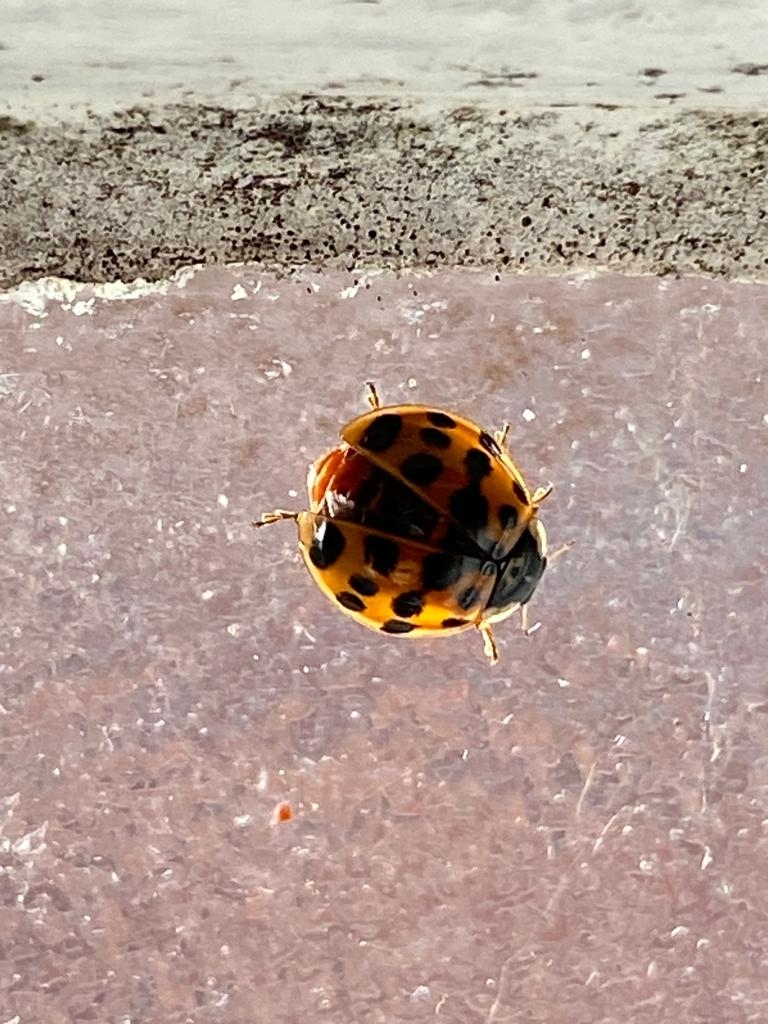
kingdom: Animalia
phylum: Arthropoda
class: Insecta
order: Coleoptera
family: Coccinellidae
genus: Harmonia
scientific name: Harmonia axyridis
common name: Harlequin ladybird
